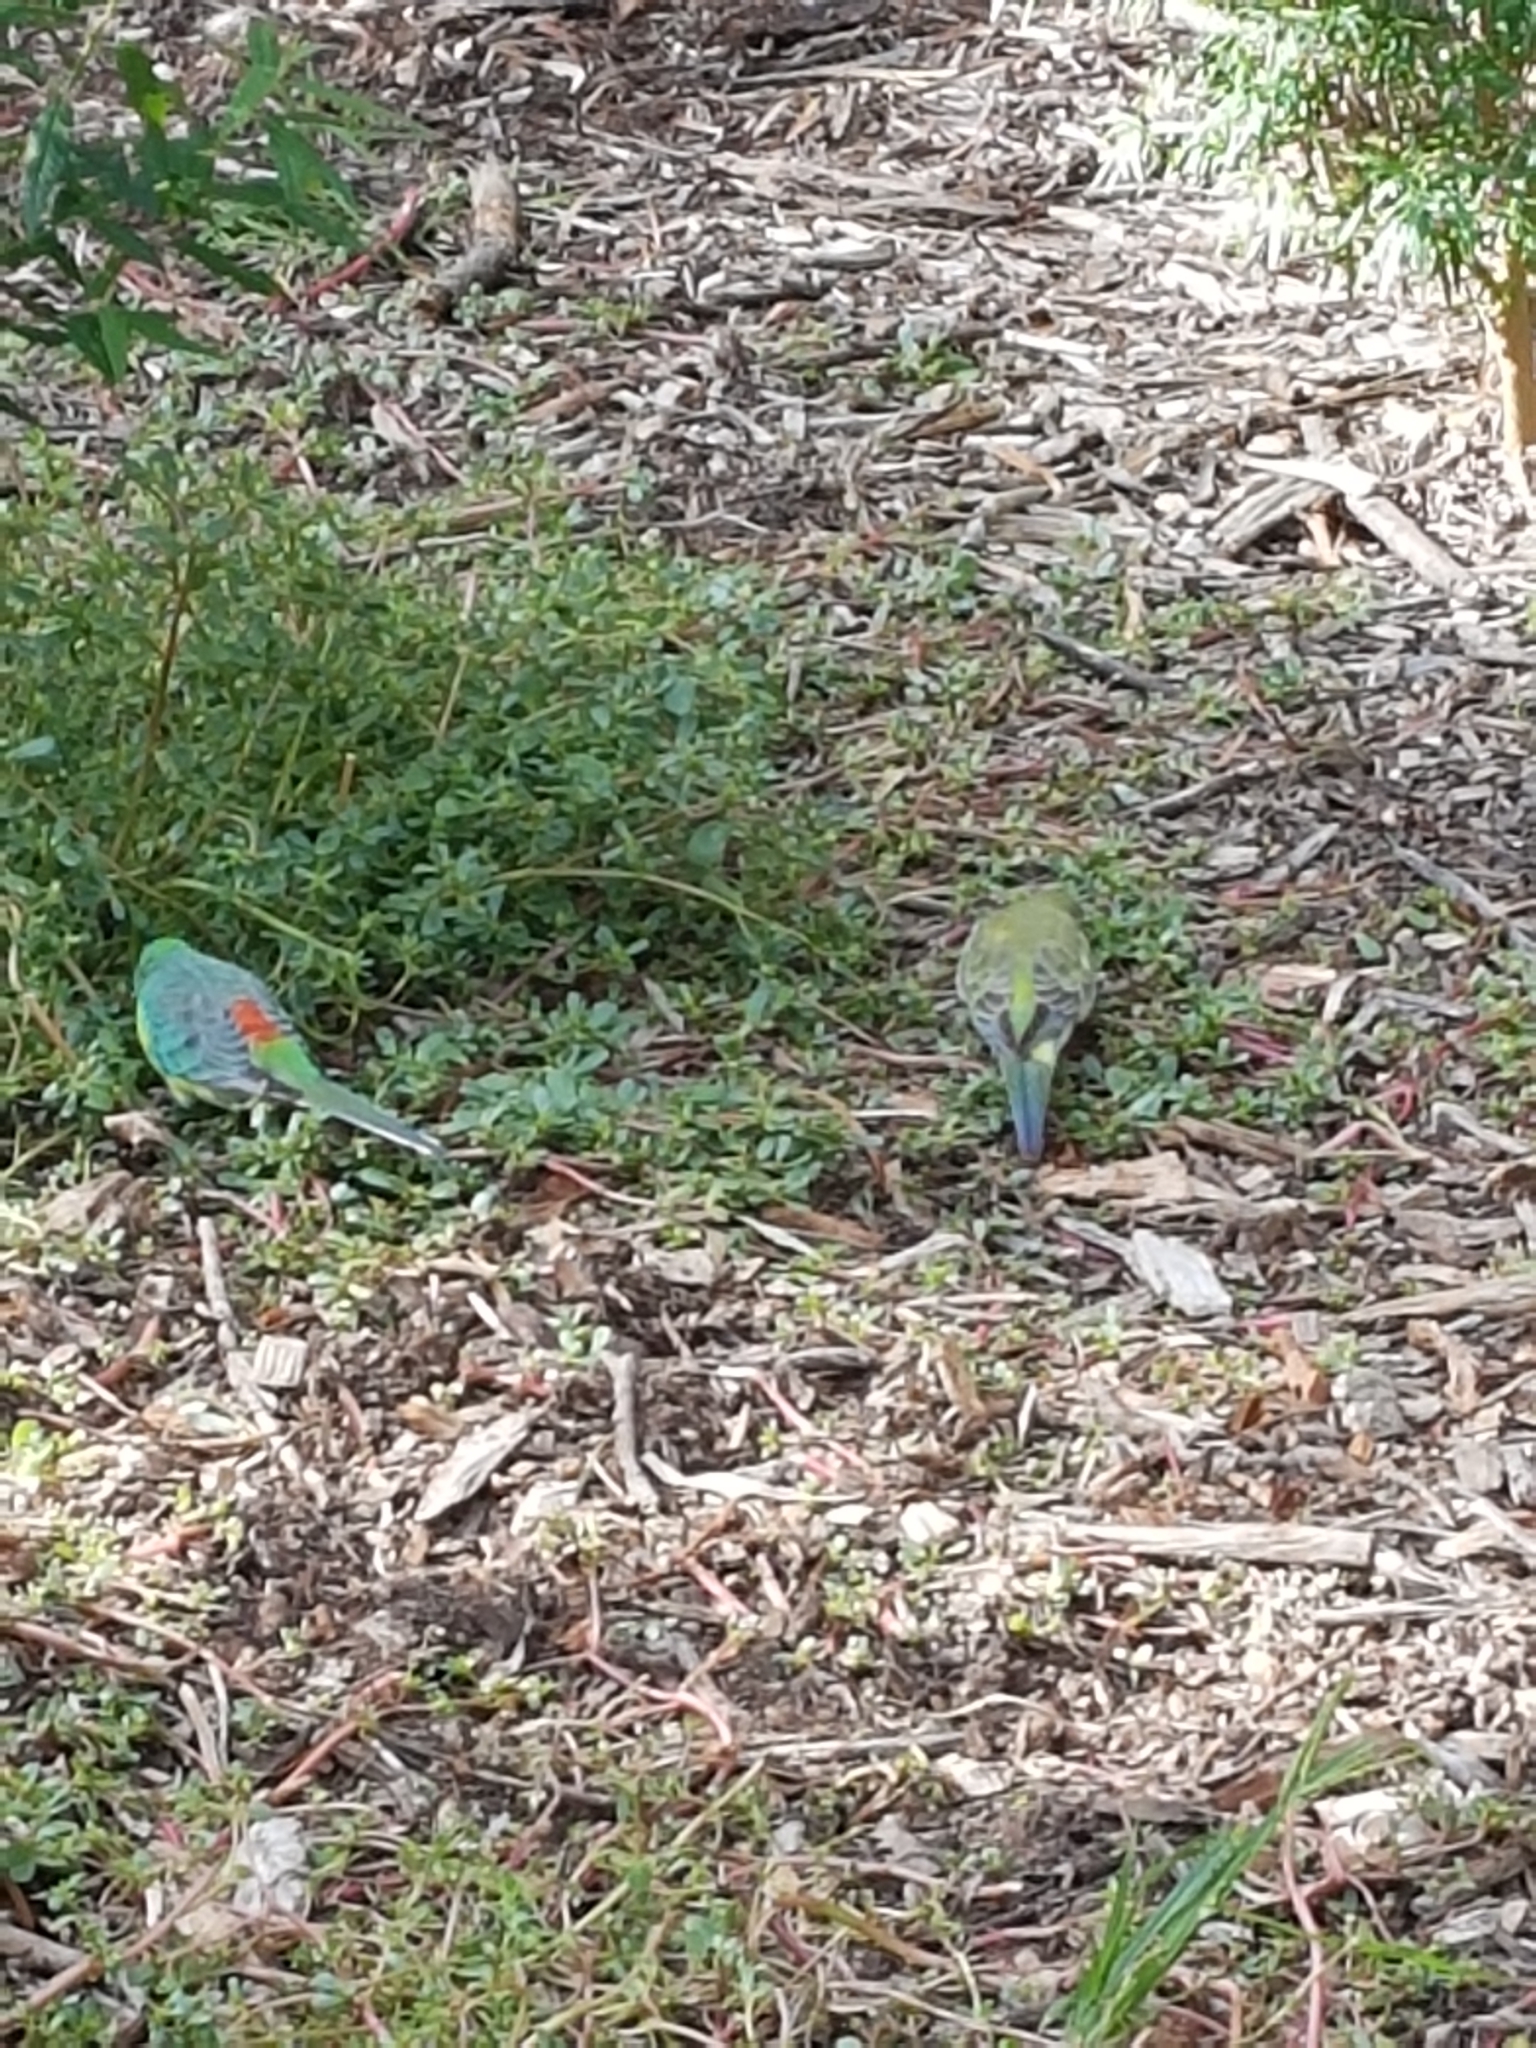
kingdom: Animalia
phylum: Chordata
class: Aves
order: Psittaciformes
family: Psittacidae
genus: Psephotus
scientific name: Psephotus haematonotus
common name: Red-rumped parrot
